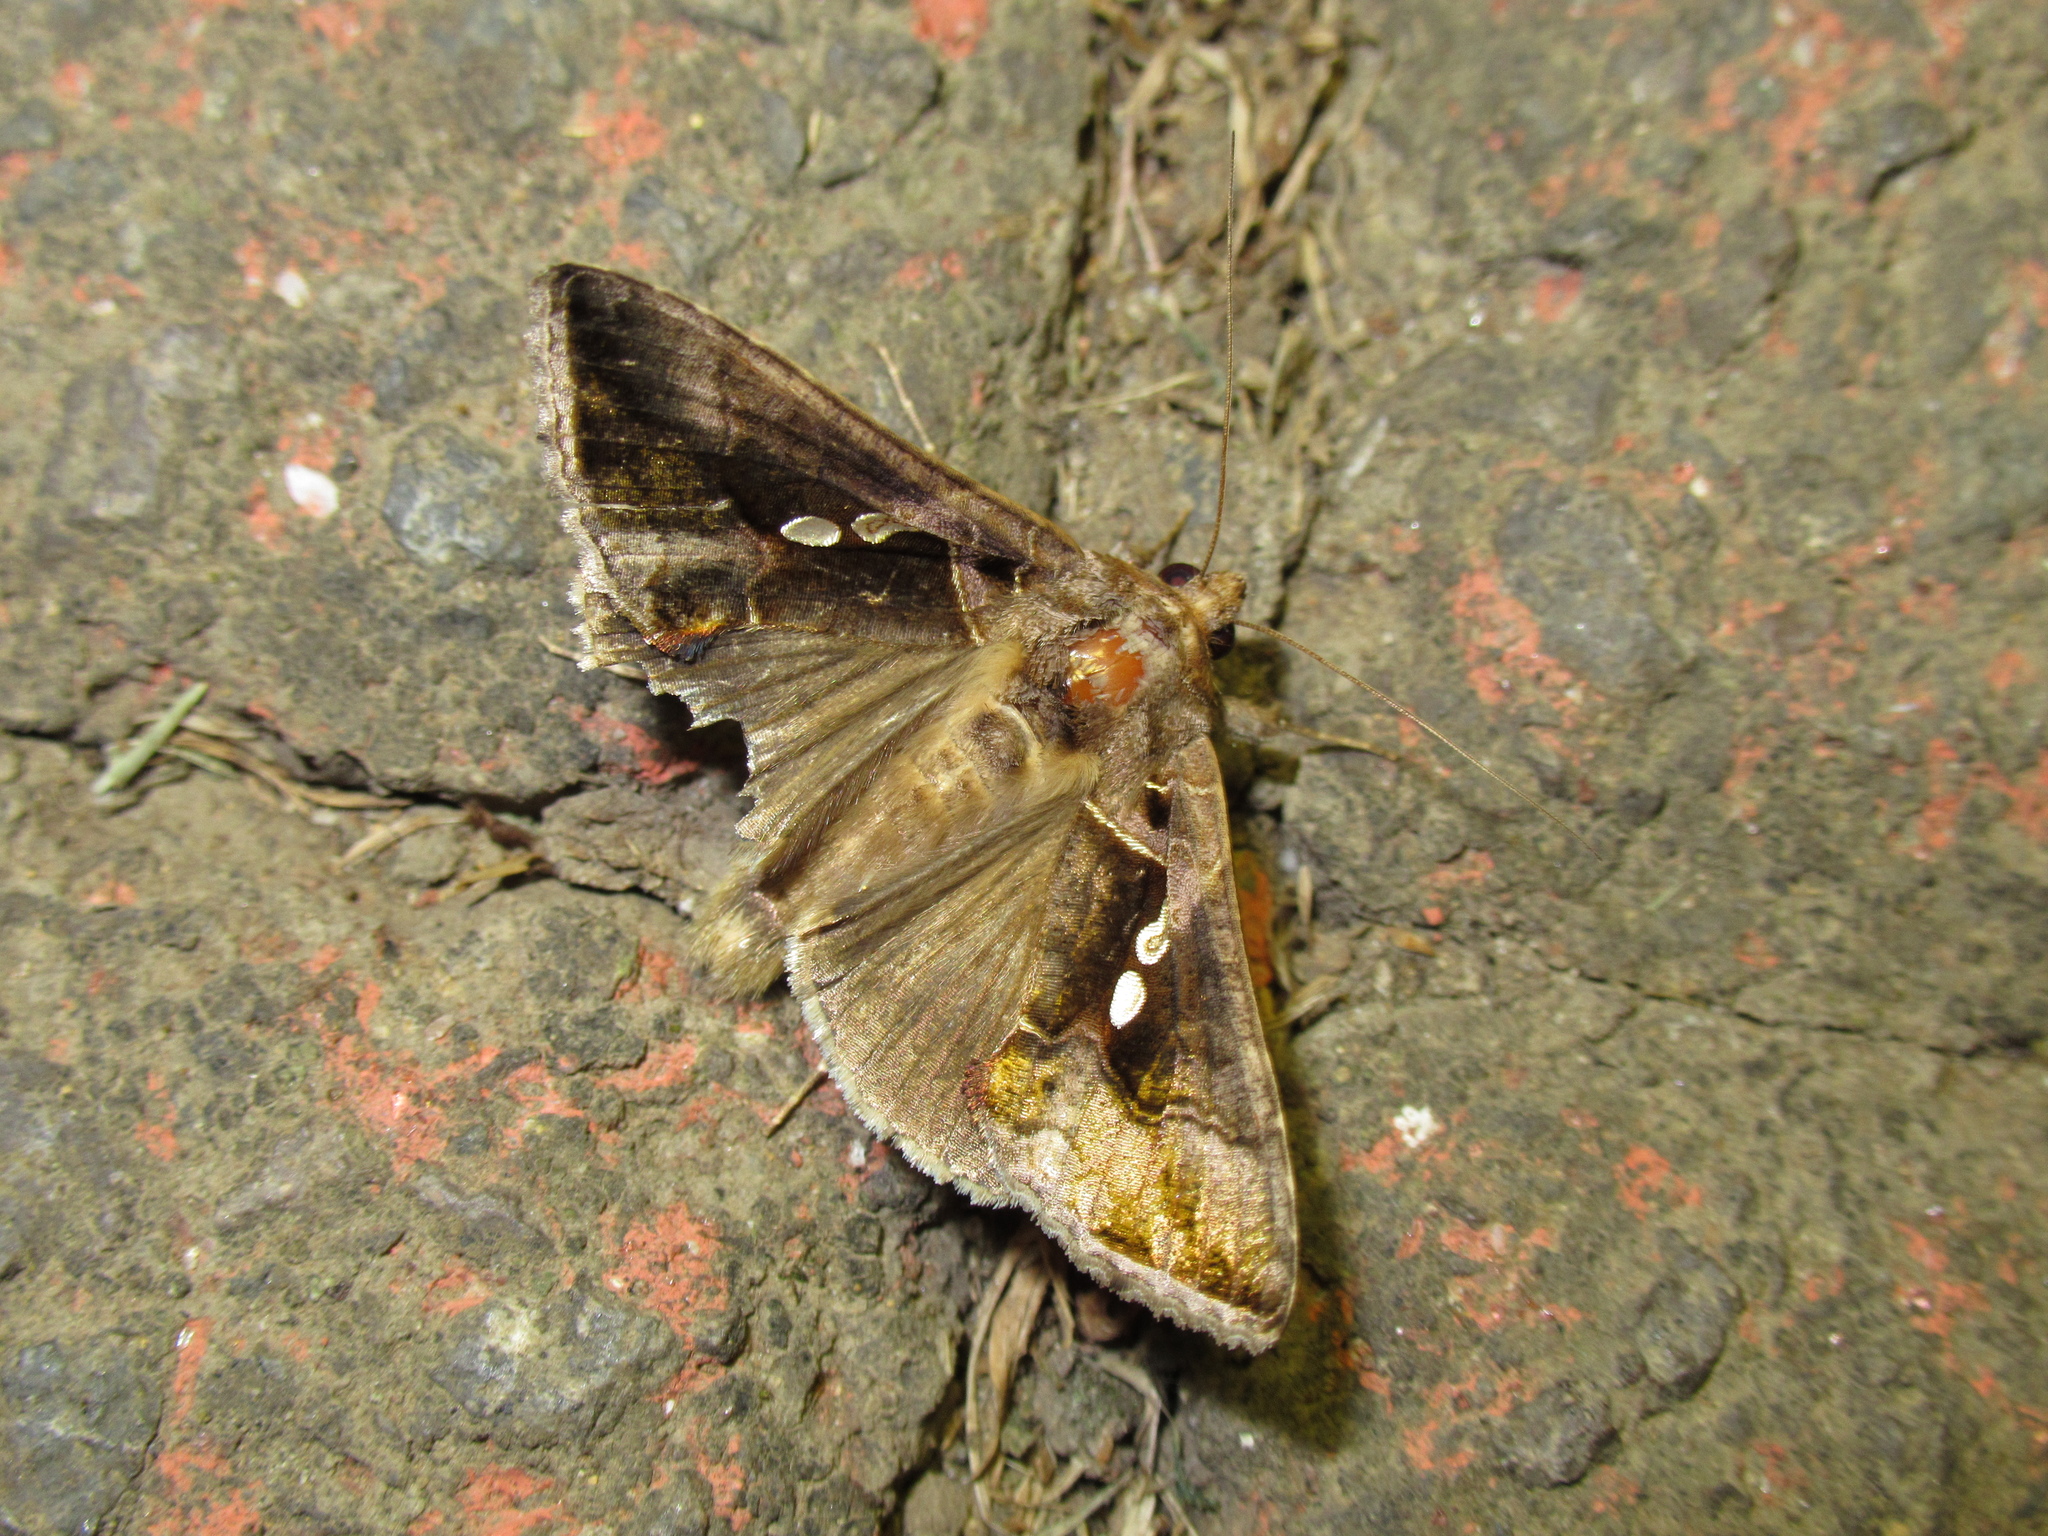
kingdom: Animalia
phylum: Arthropoda
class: Insecta
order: Lepidoptera
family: Noctuidae
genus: Chrysodeixis
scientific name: Chrysodeixis eriosoma
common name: Green garden looper
